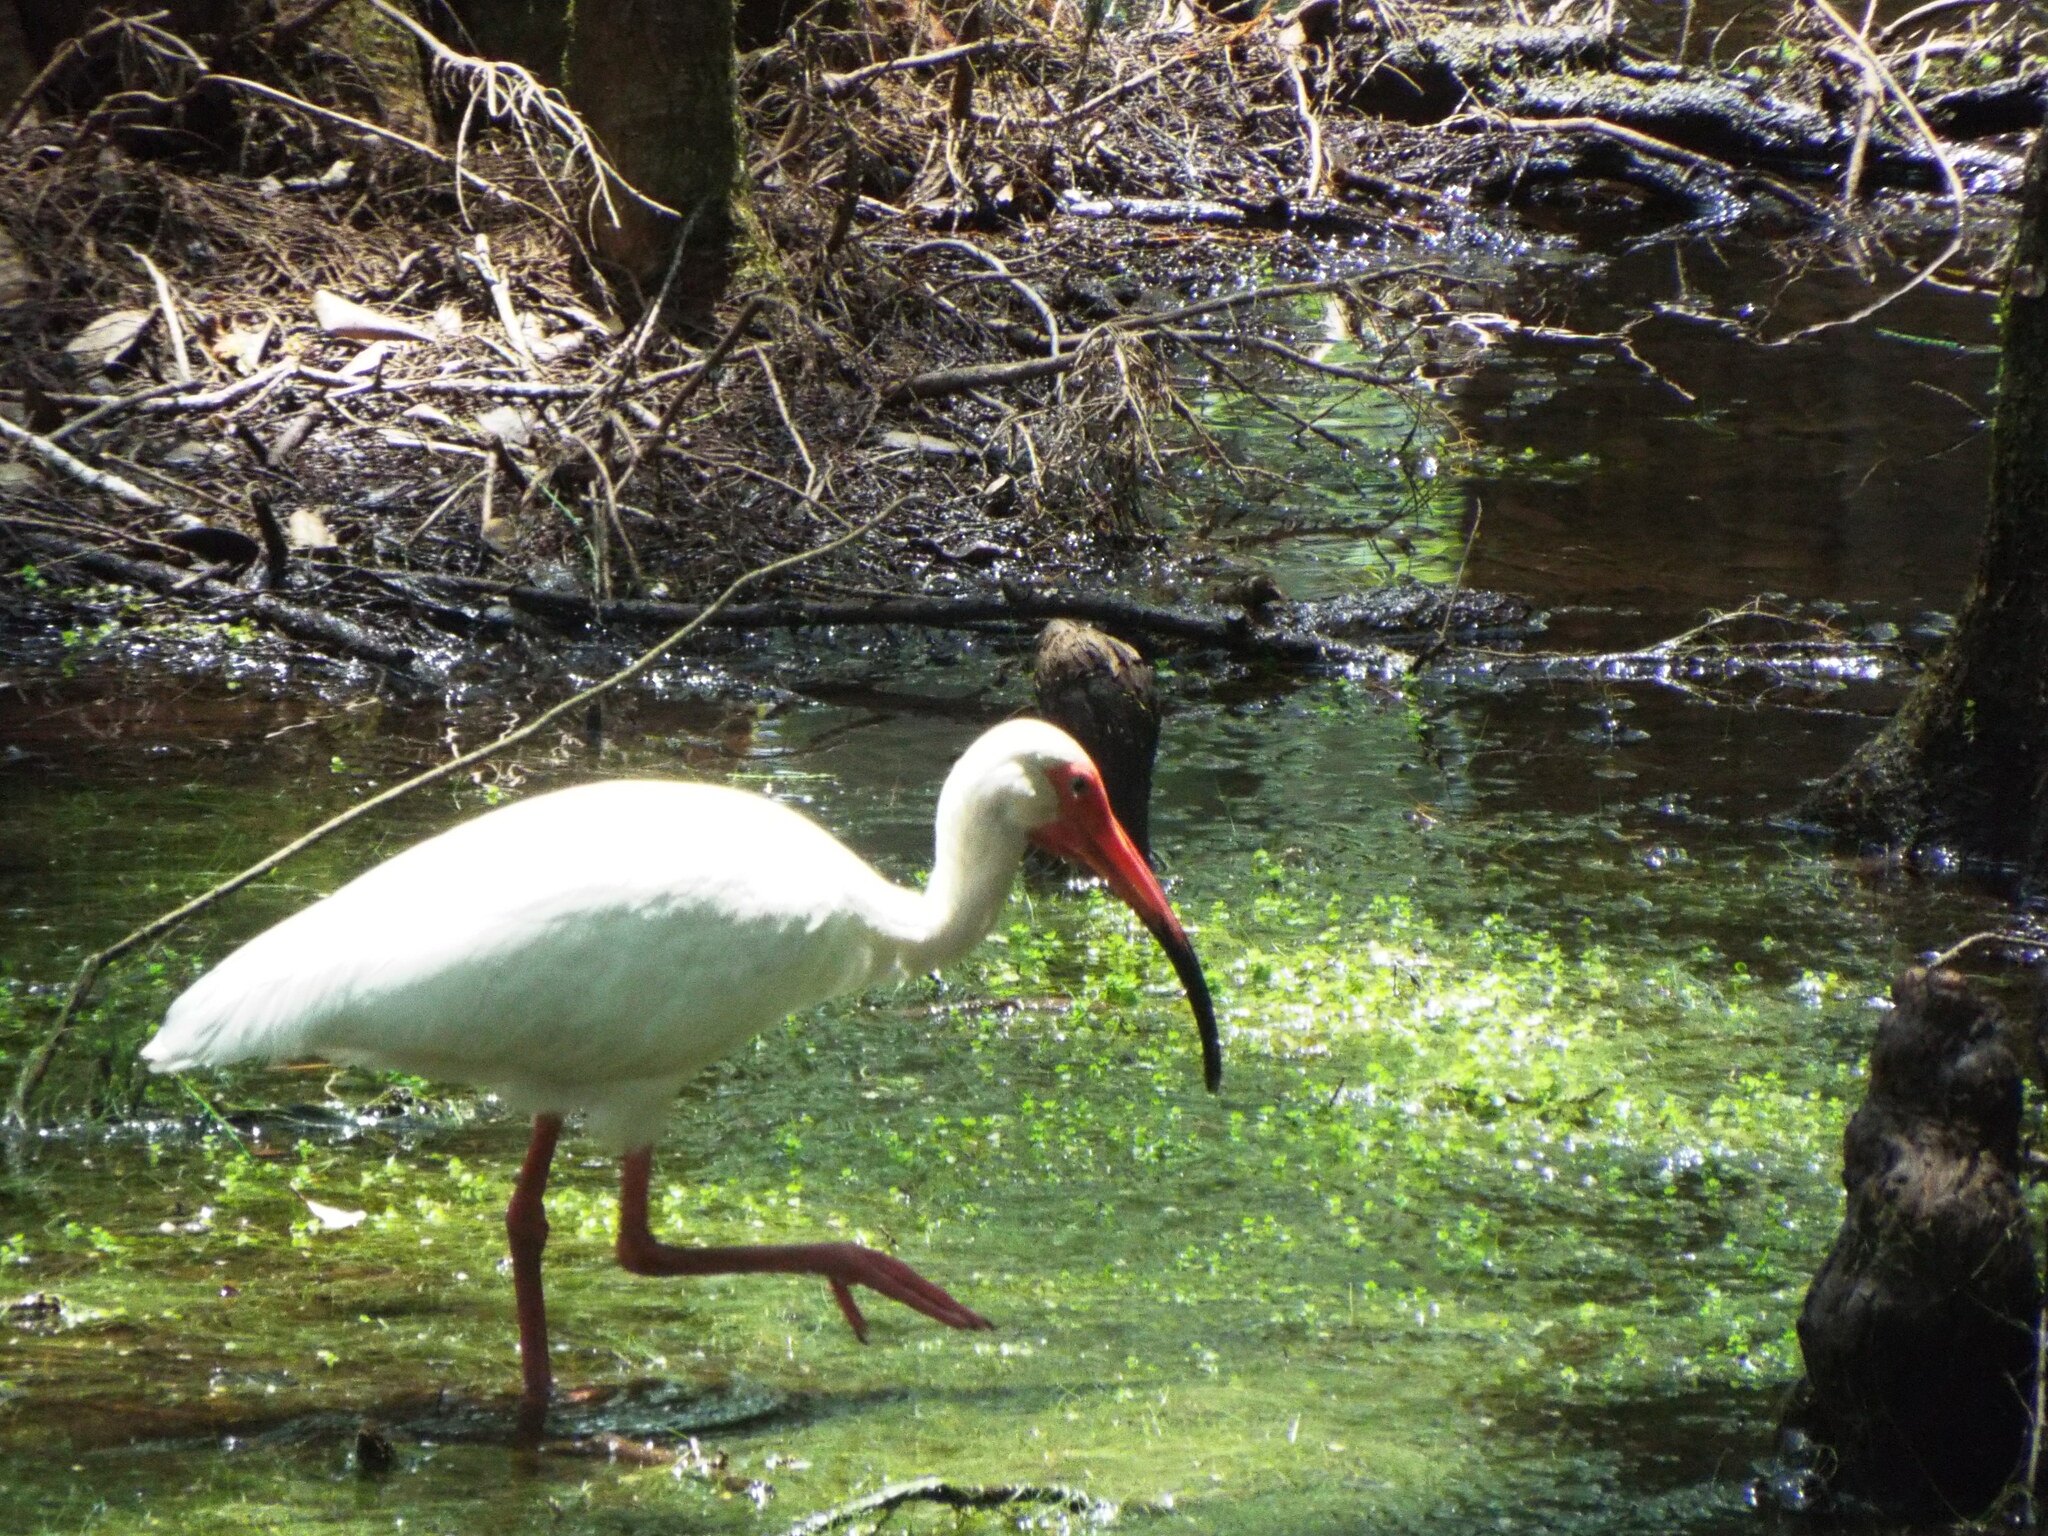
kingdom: Animalia
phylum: Chordata
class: Aves
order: Pelecaniformes
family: Threskiornithidae
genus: Eudocimus
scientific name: Eudocimus albus
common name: White ibis
